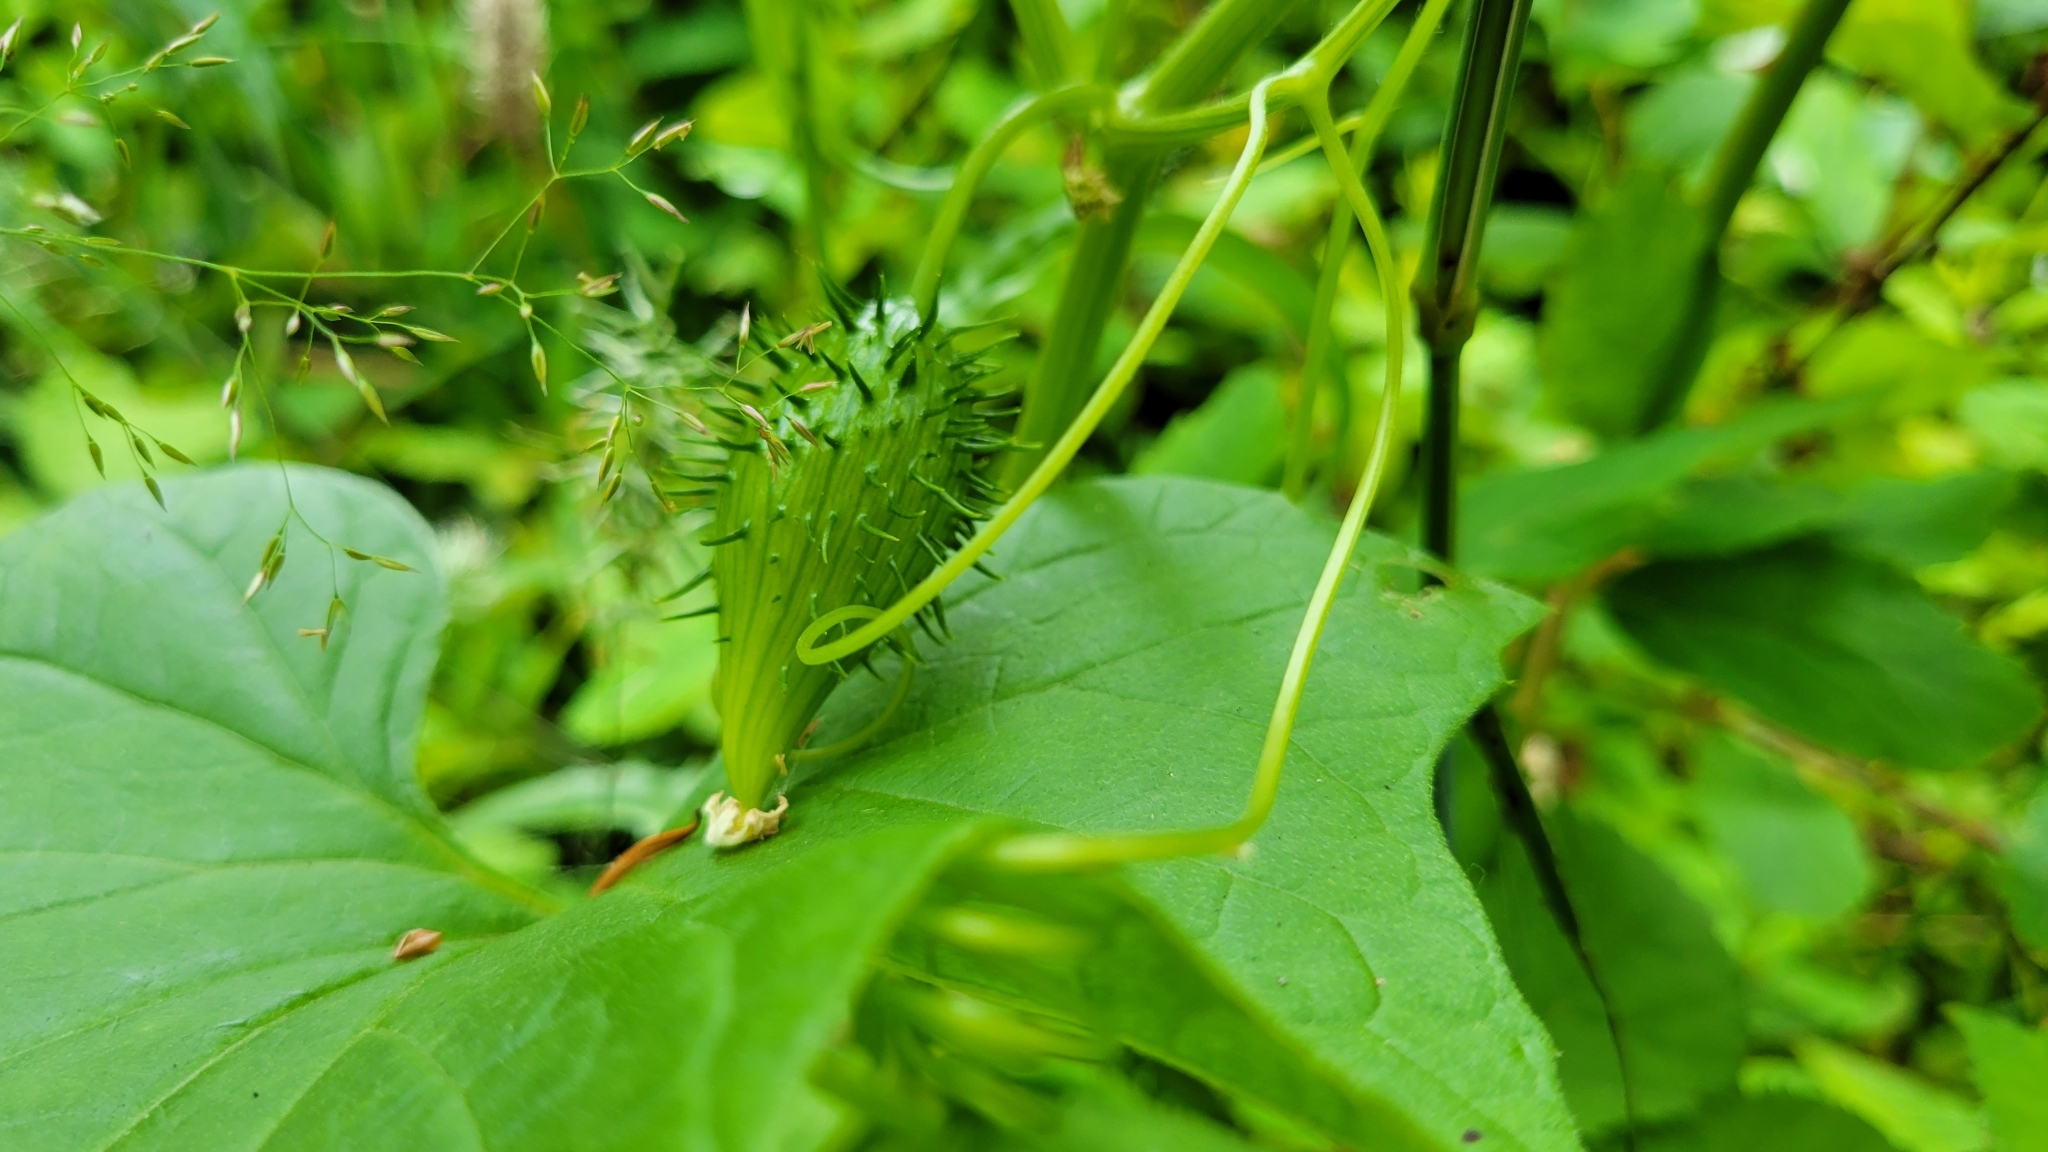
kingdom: Plantae
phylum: Tracheophyta
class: Magnoliopsida
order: Cucurbitales
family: Cucurbitaceae
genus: Marah
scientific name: Marah oregana
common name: Coastal manroot
